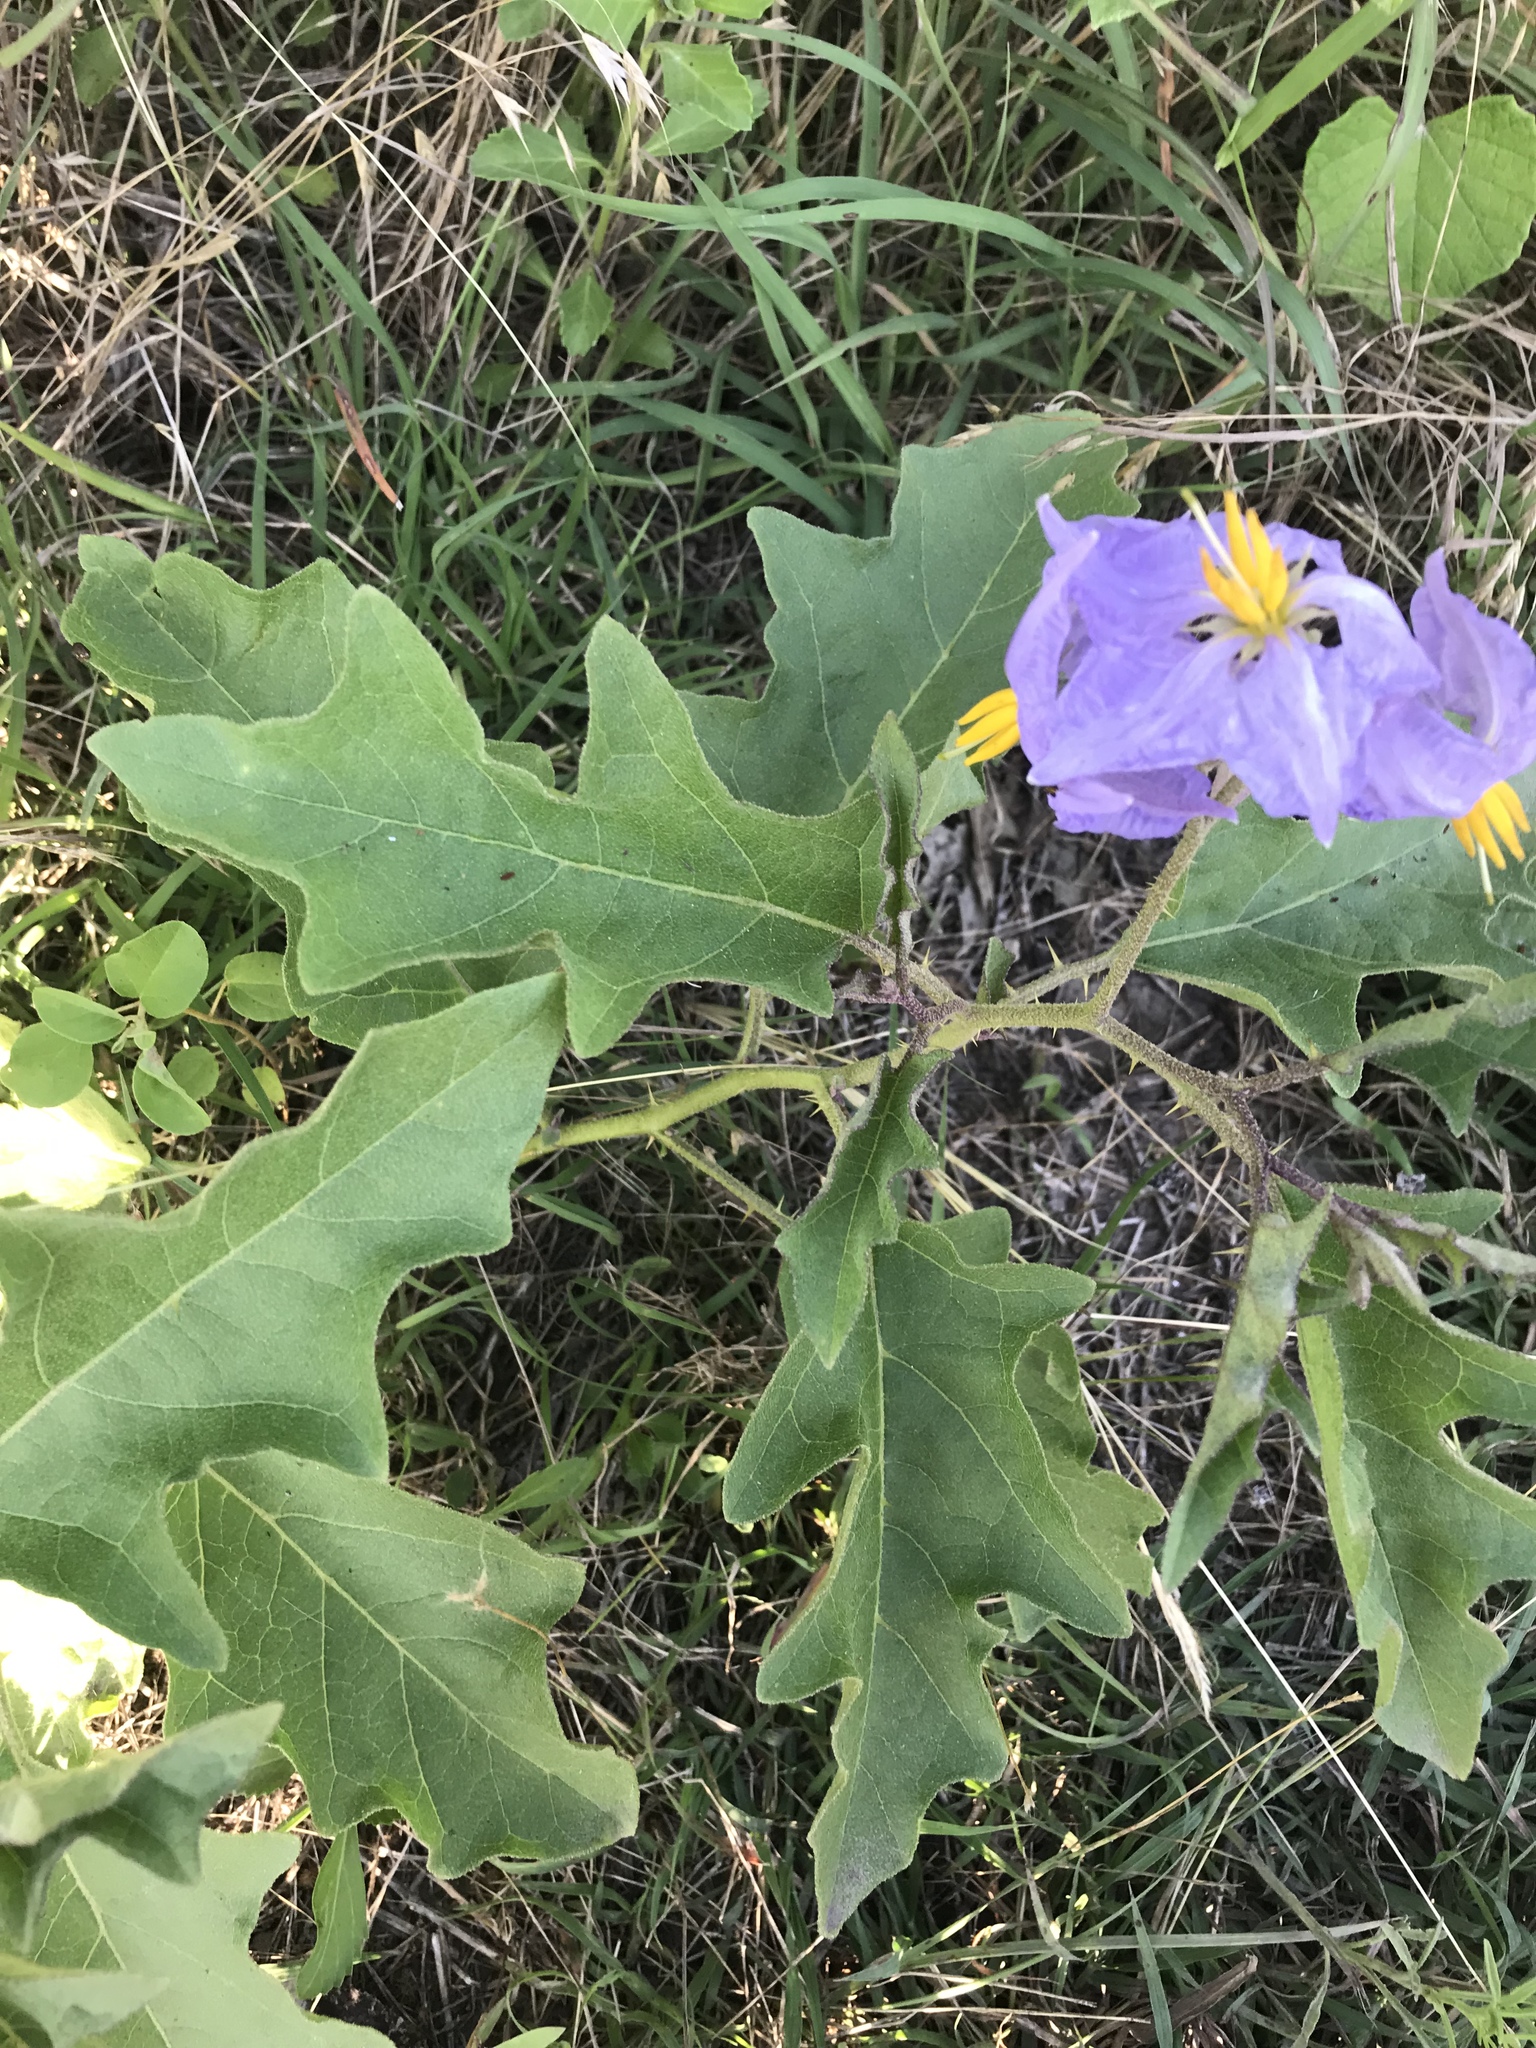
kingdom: Plantae
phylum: Tracheophyta
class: Magnoliopsida
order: Solanales
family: Solanaceae
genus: Solanum
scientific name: Solanum dimidiatum
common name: Carolina horse-nettle
